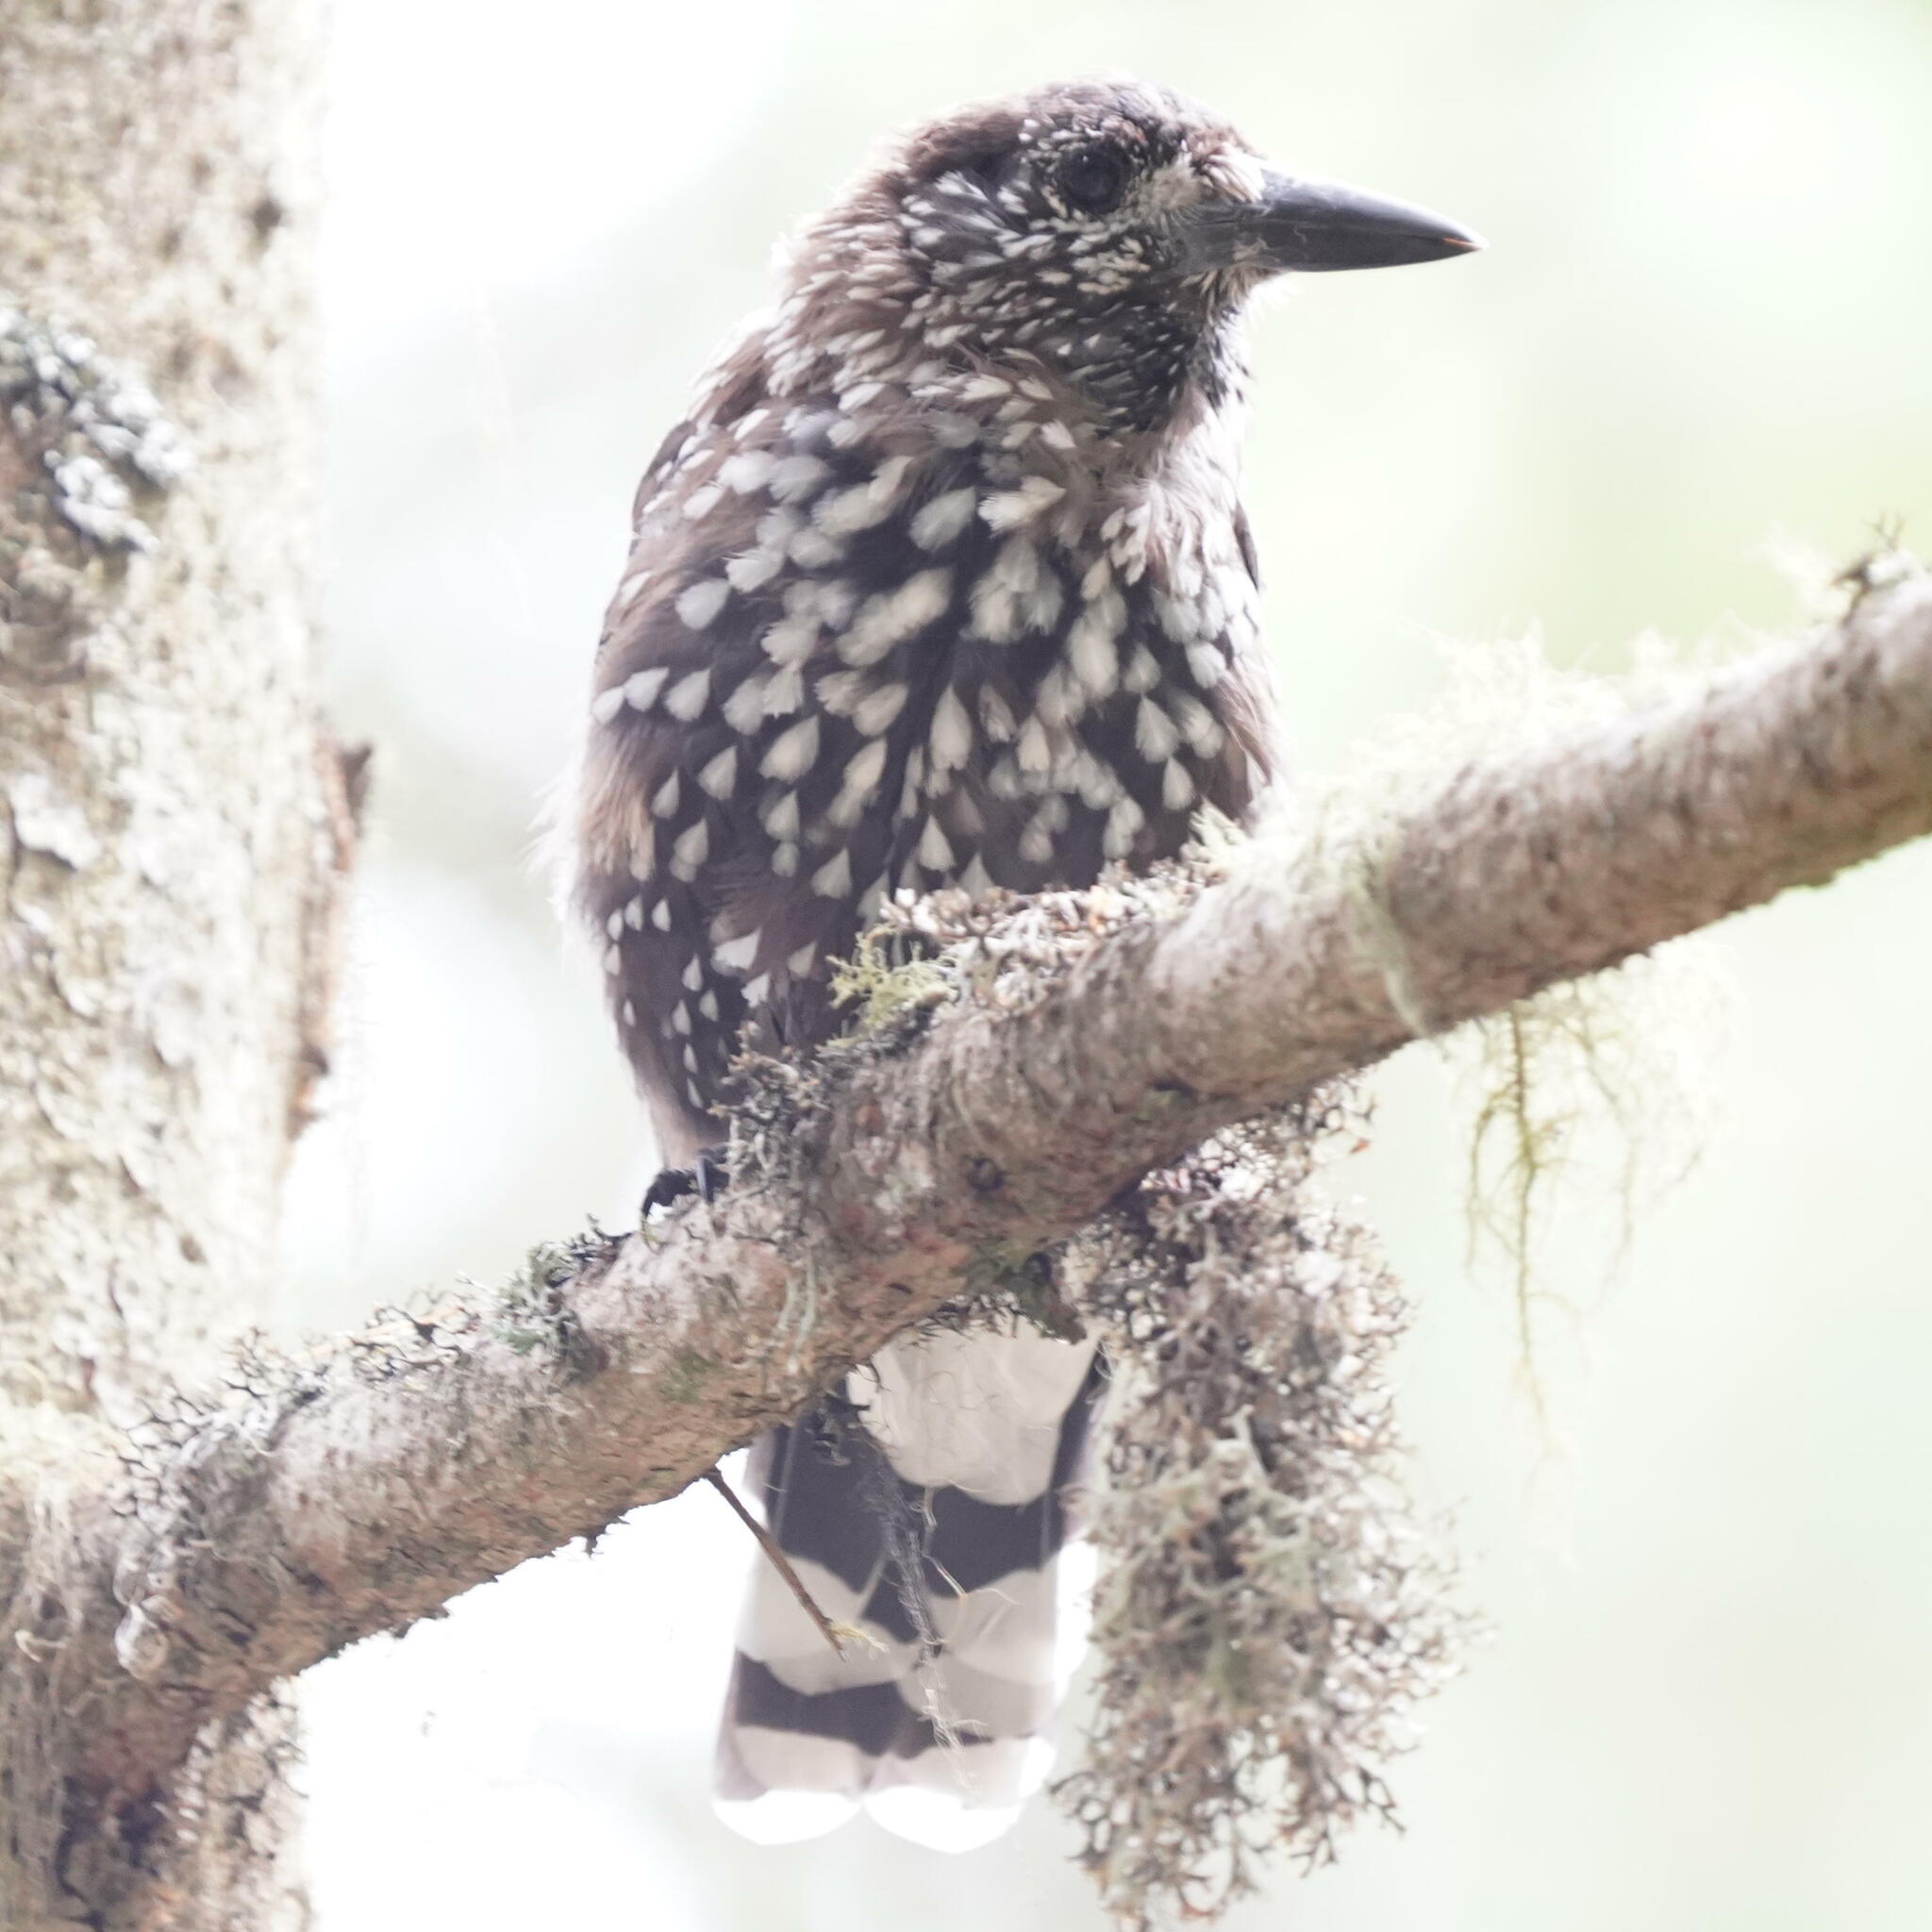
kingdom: Animalia
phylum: Chordata
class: Aves
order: Passeriformes
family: Corvidae
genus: Nucifraga
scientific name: Nucifraga caryocatactes
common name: Spotted nutcracker
